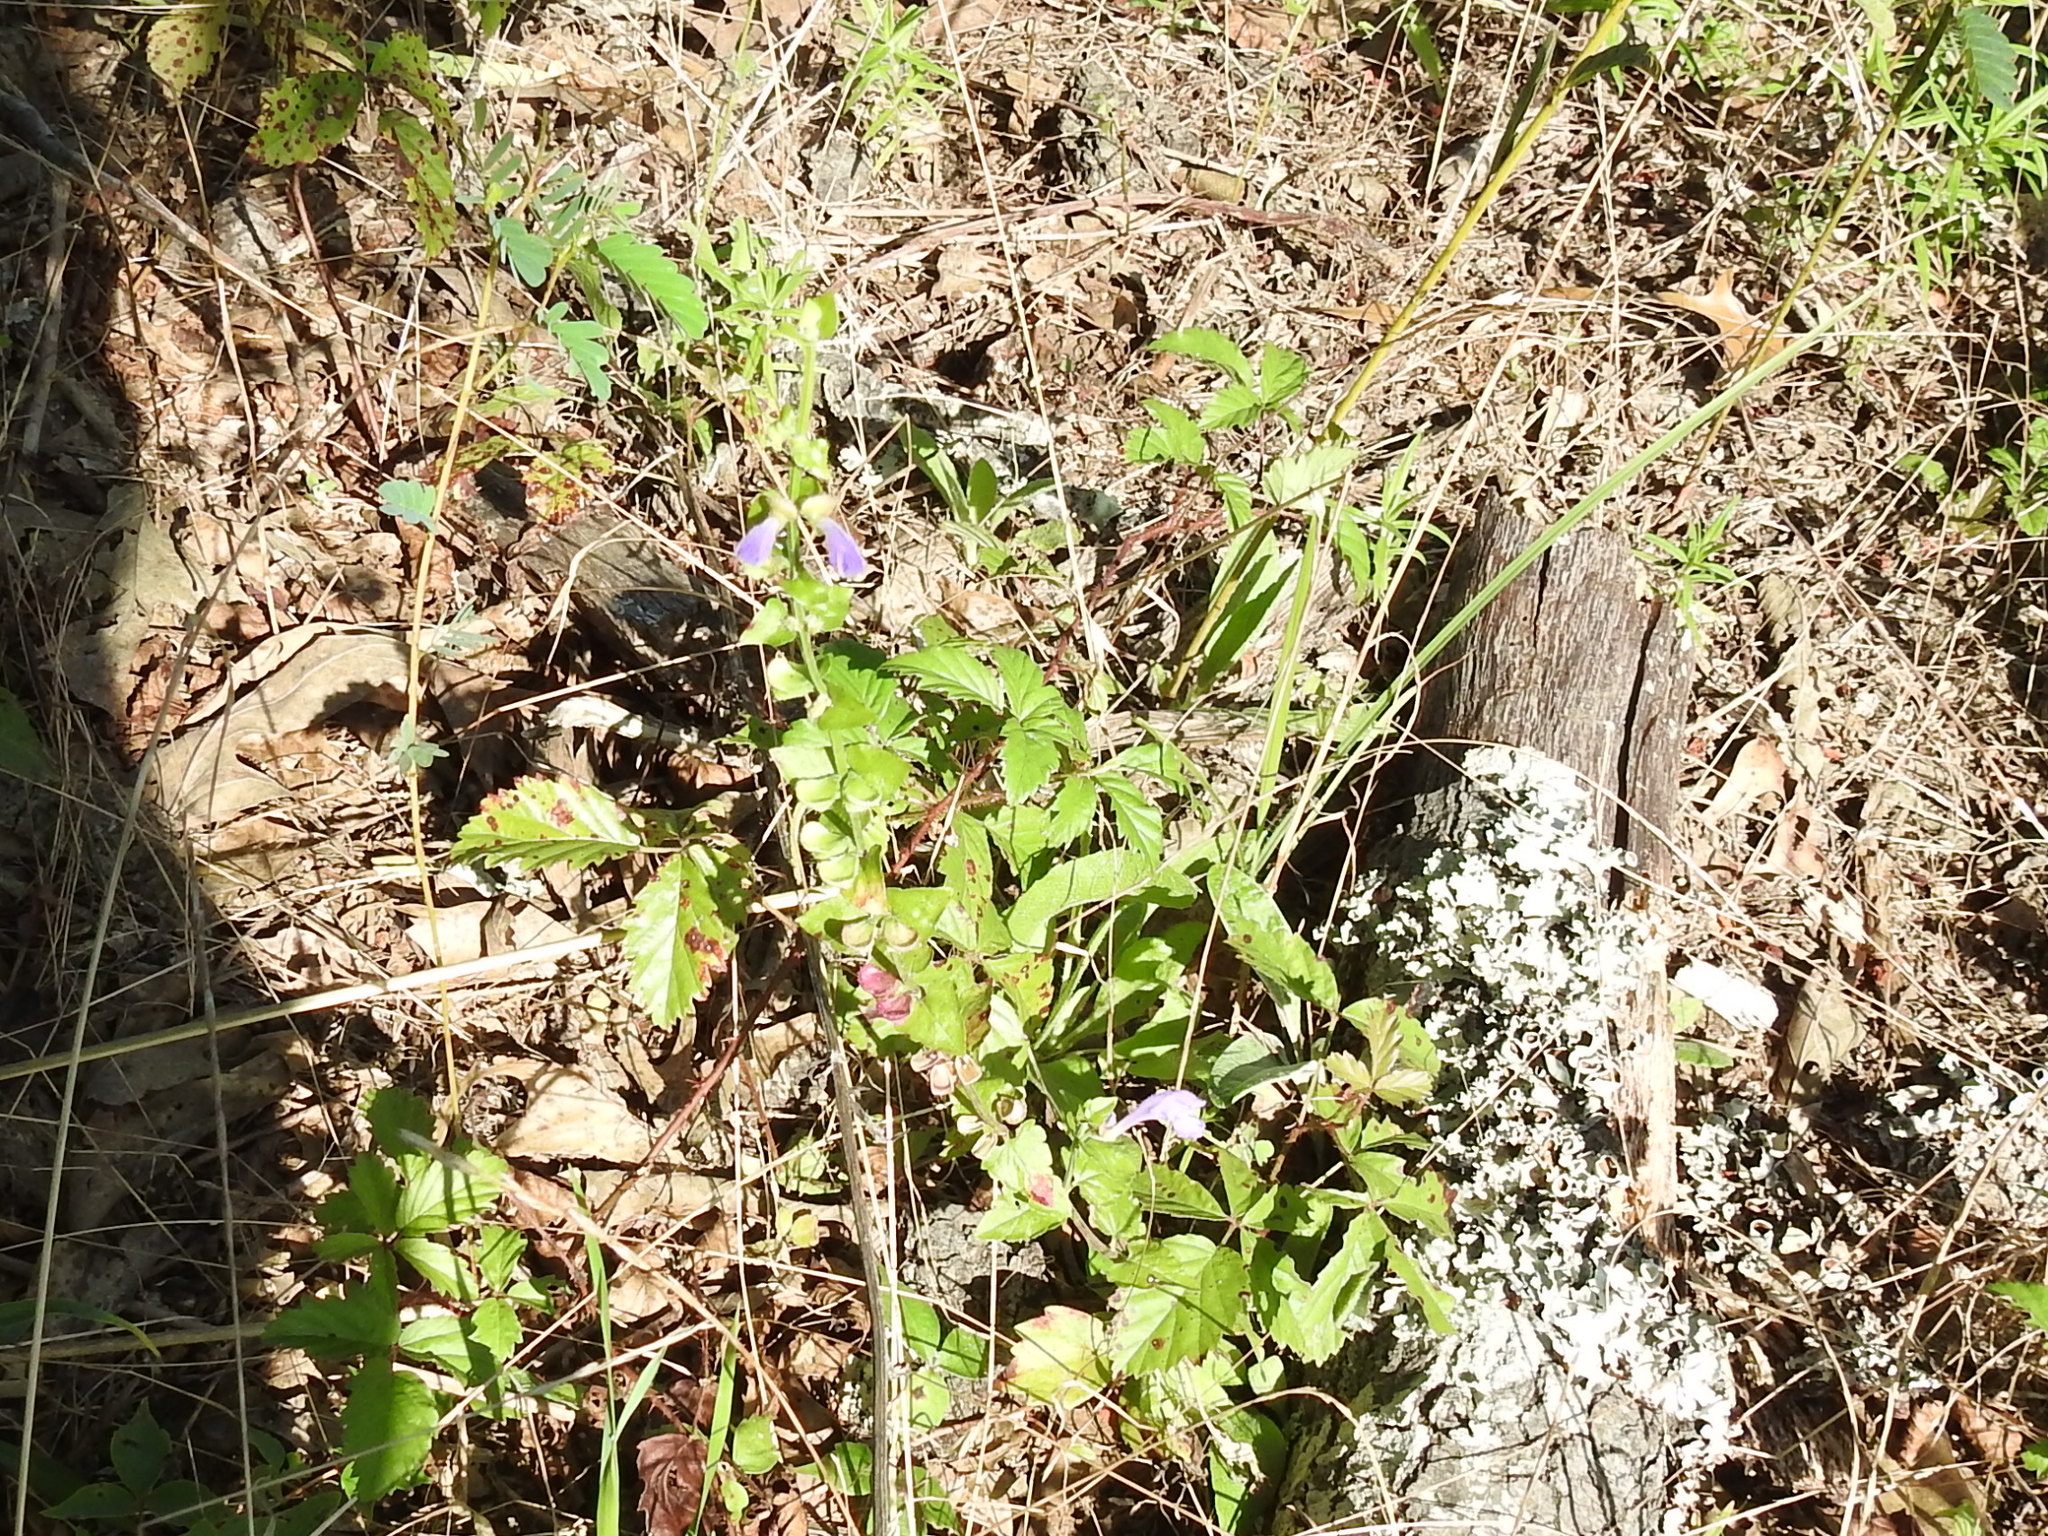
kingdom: Plantae
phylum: Tracheophyta
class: Magnoliopsida
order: Lamiales
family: Lamiaceae
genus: Scutellaria
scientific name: Scutellaria cardiophylla
